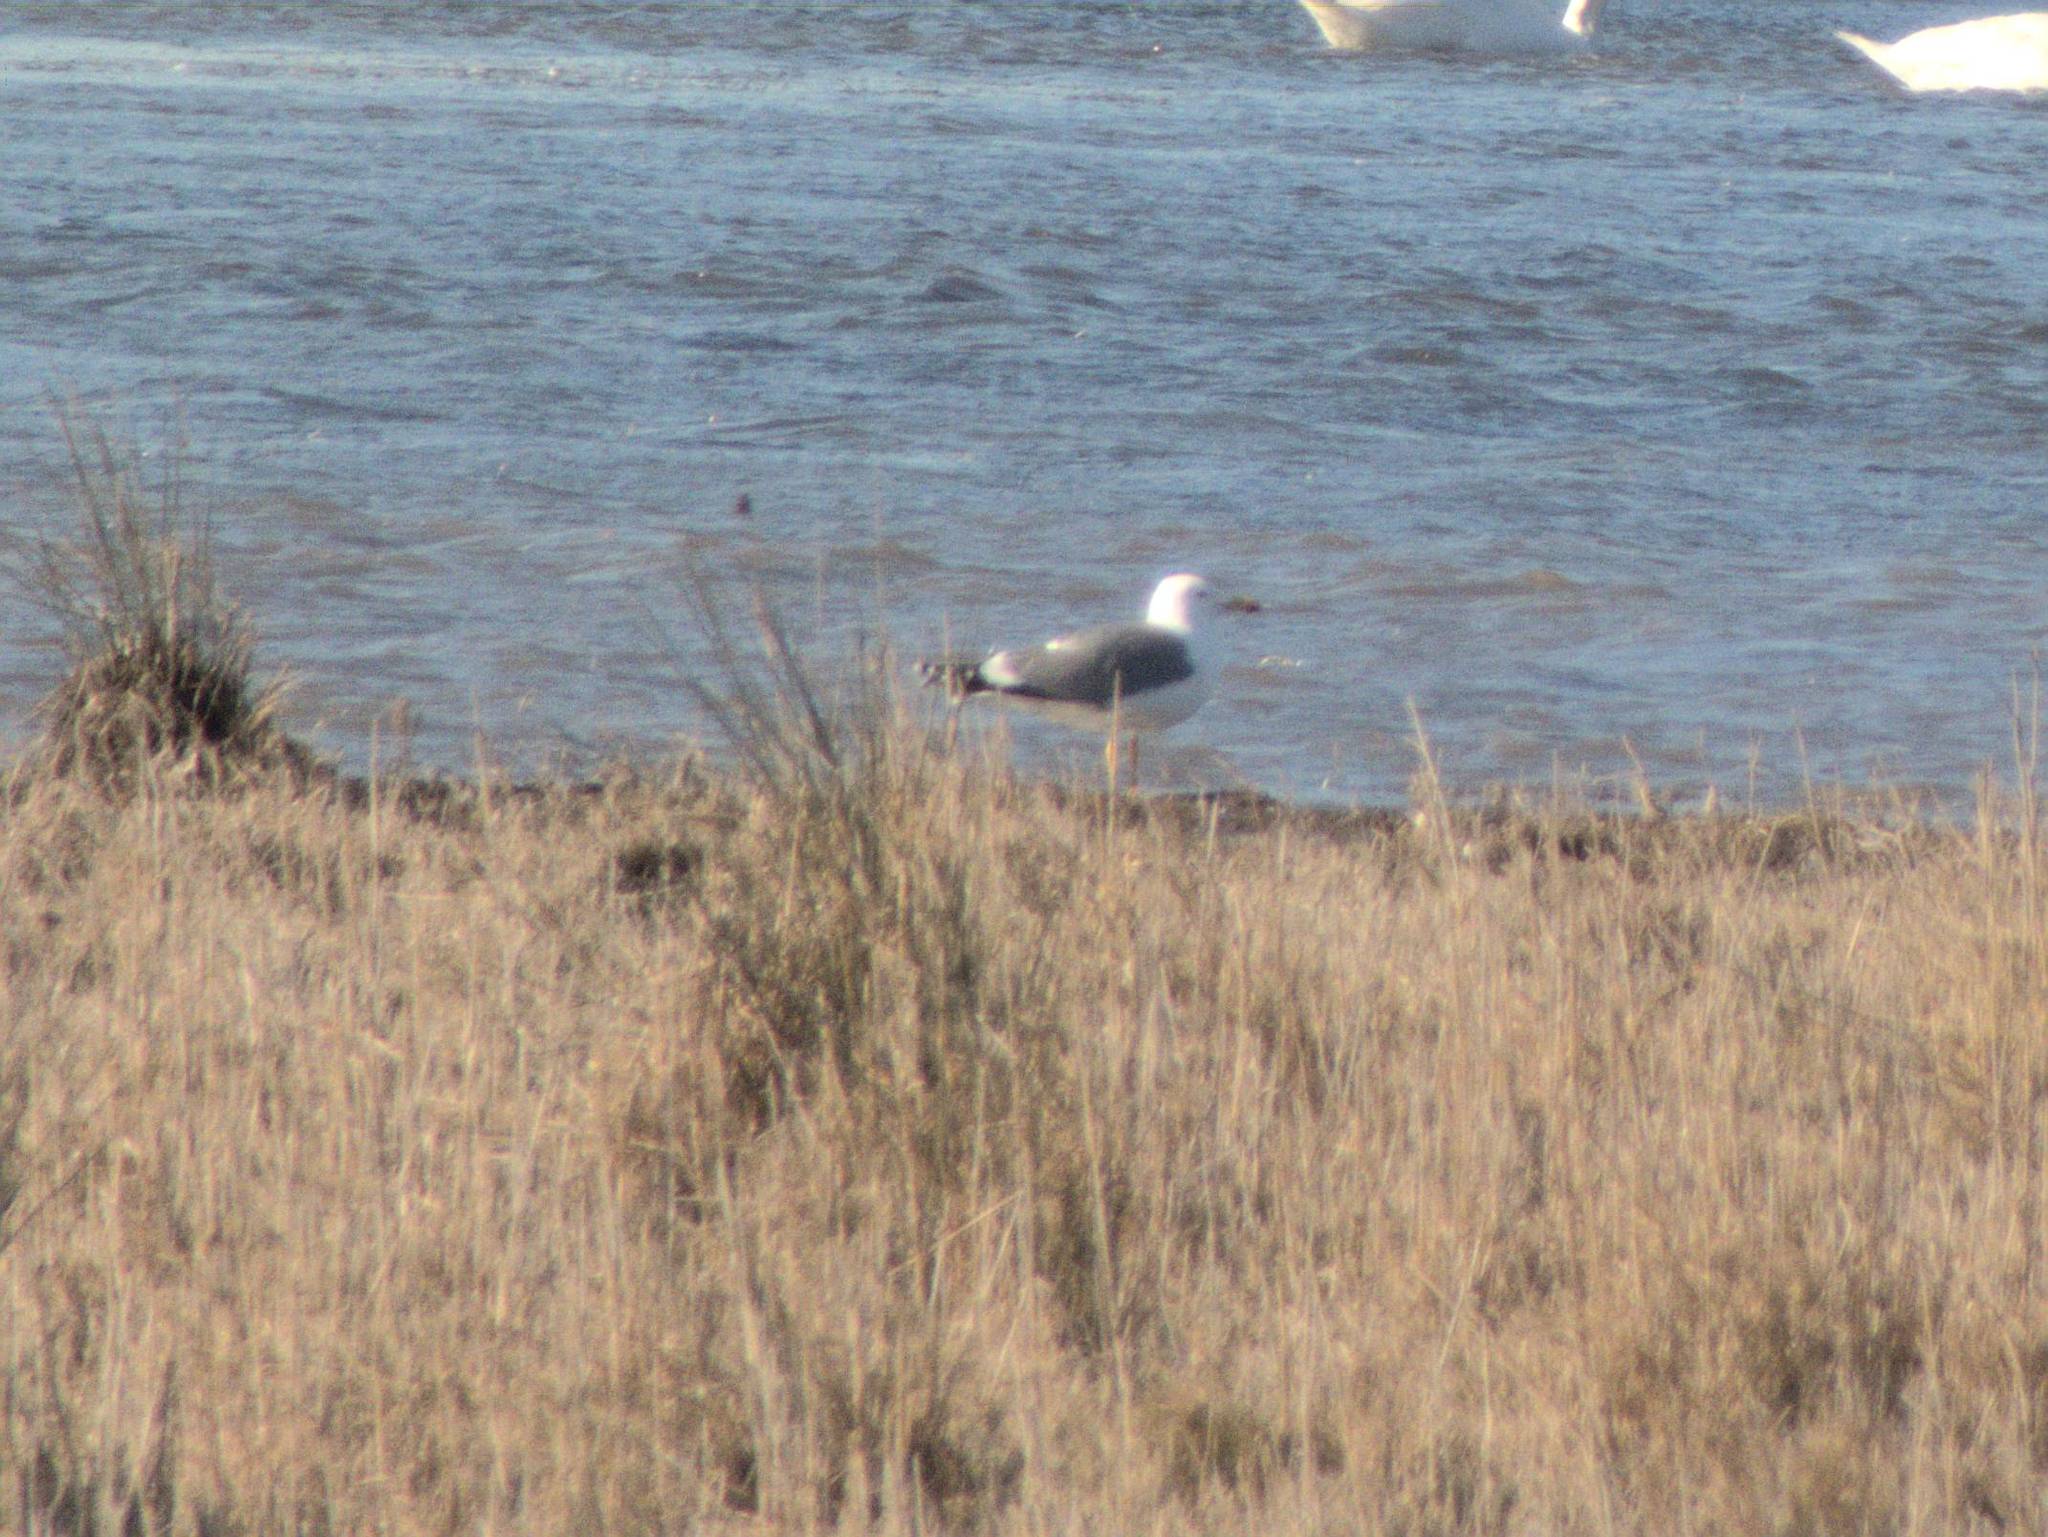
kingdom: Animalia
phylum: Chordata
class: Aves
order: Charadriiformes
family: Laridae
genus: Larus
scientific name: Larus michahellis
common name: Yellow-legged gull
